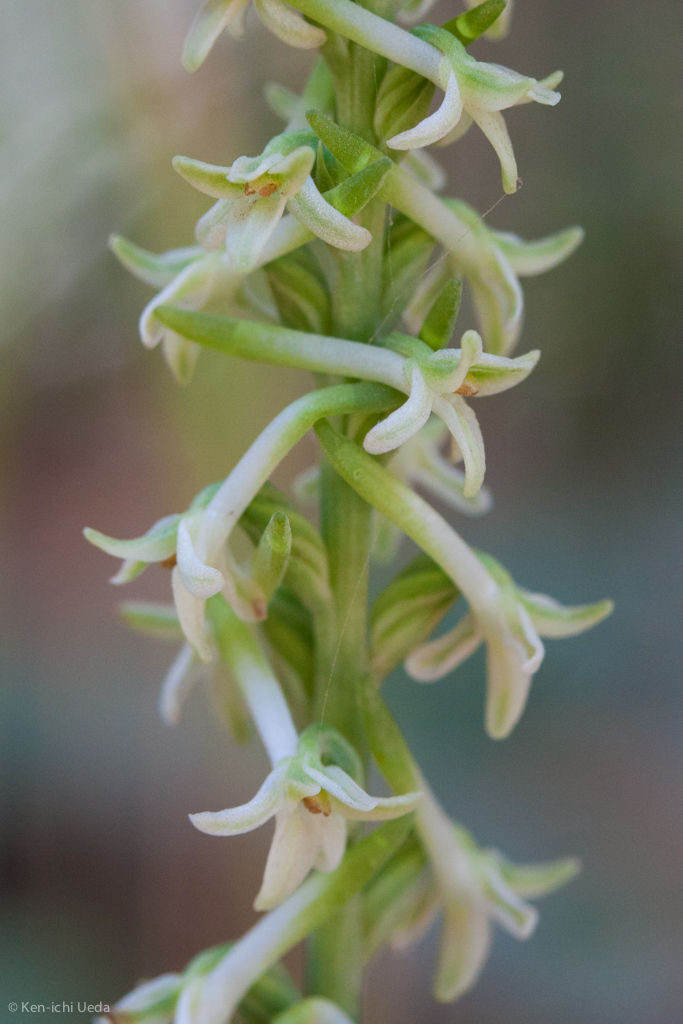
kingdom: Plantae
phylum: Tracheophyta
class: Liliopsida
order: Asparagales
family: Orchidaceae
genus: Platanthera
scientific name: Platanthera transversa
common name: Royal rein orchid
